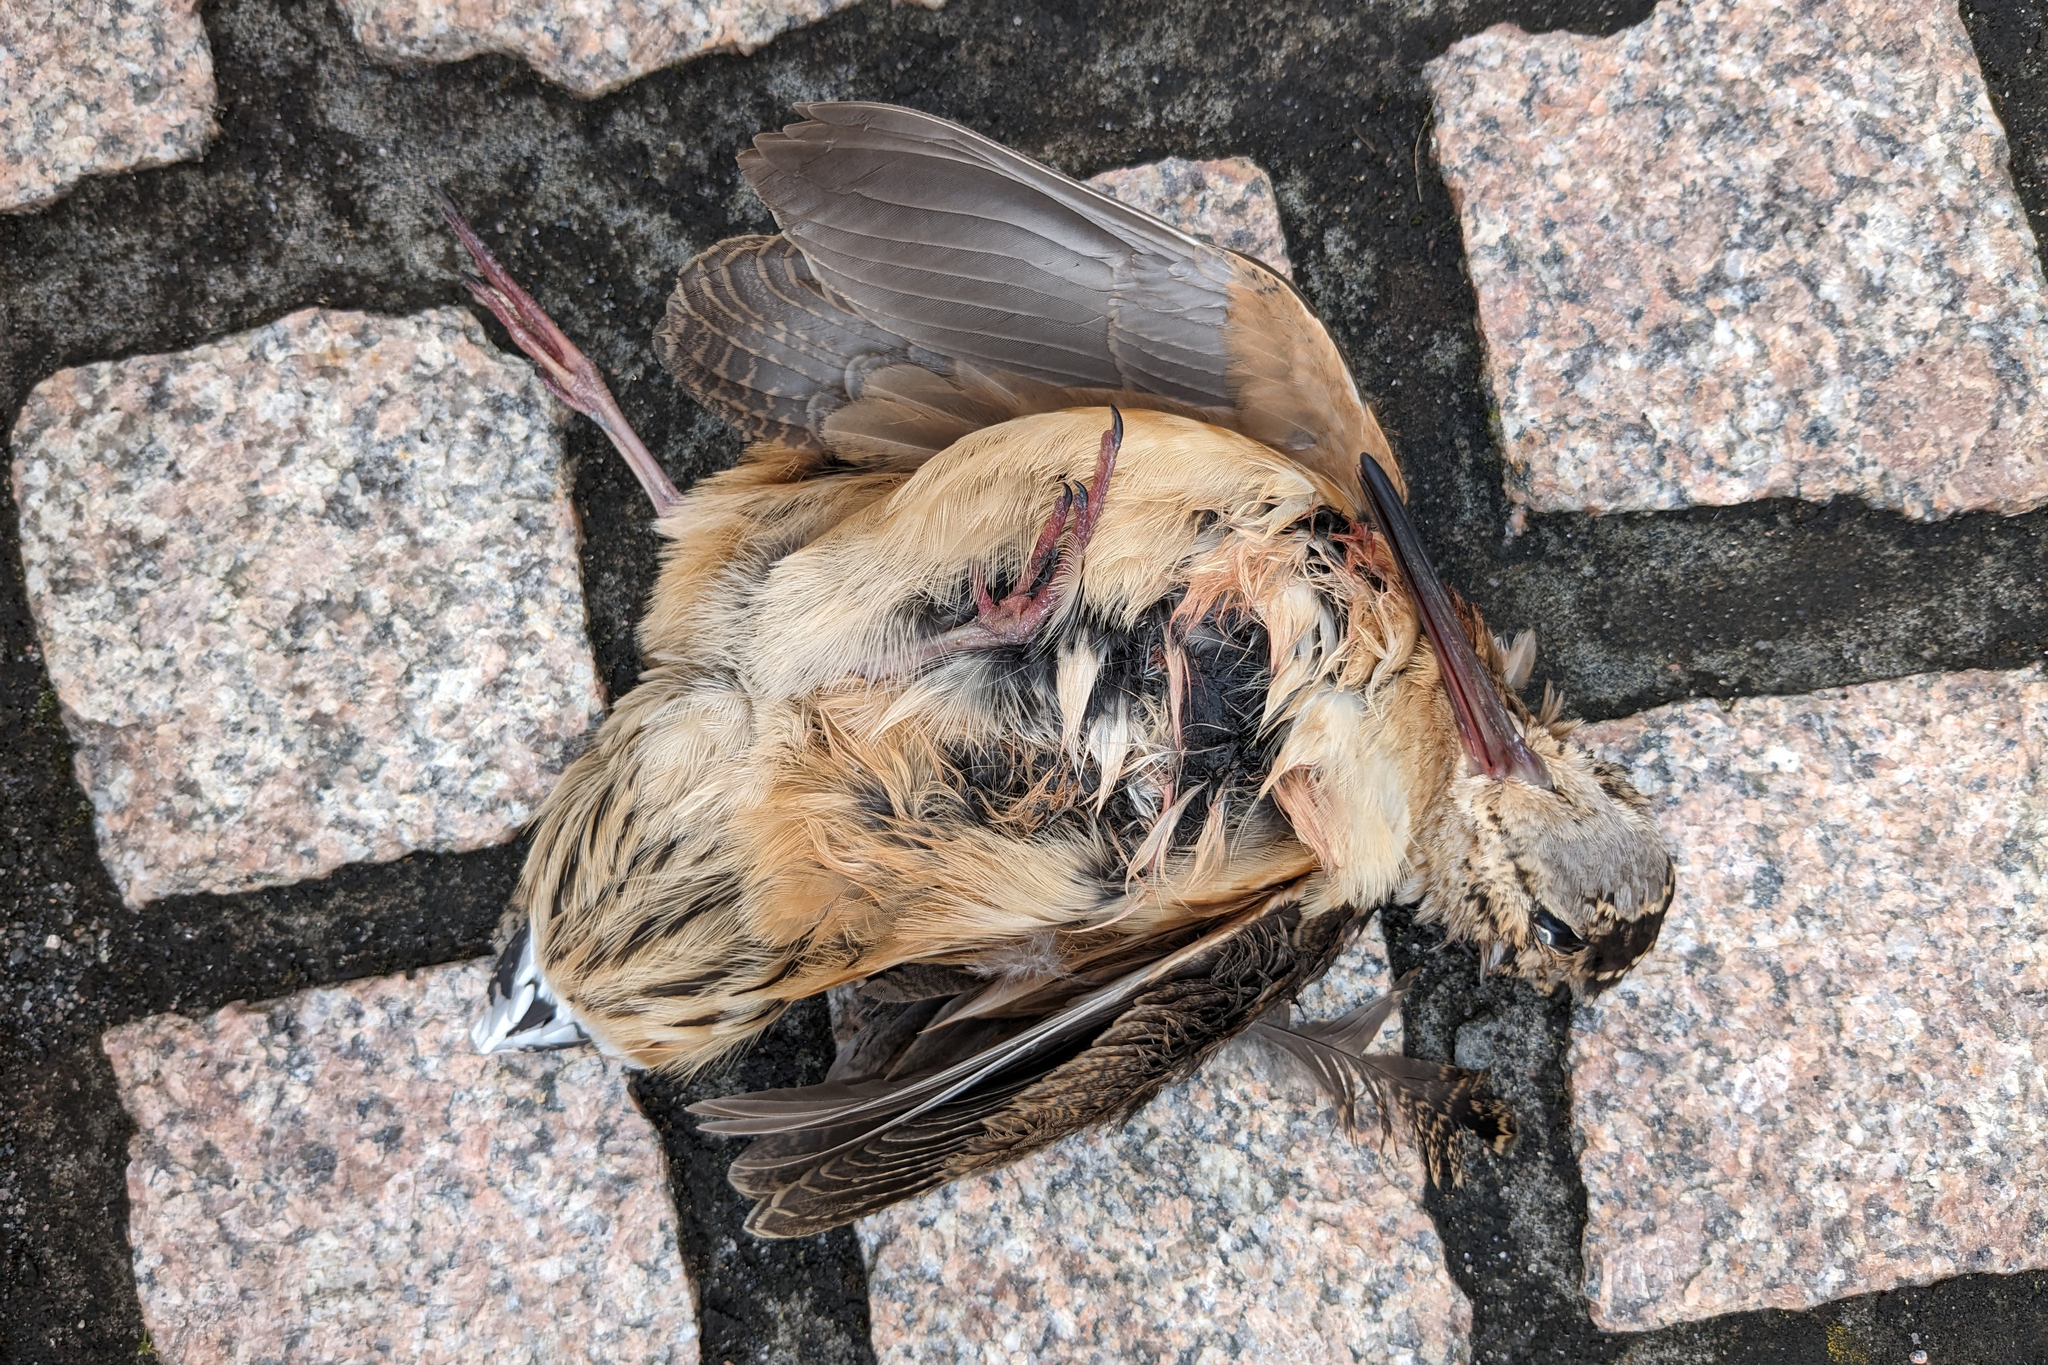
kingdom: Animalia
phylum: Chordata
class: Aves
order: Charadriiformes
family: Scolopacidae
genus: Scolopax
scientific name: Scolopax minor
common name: American woodcock
